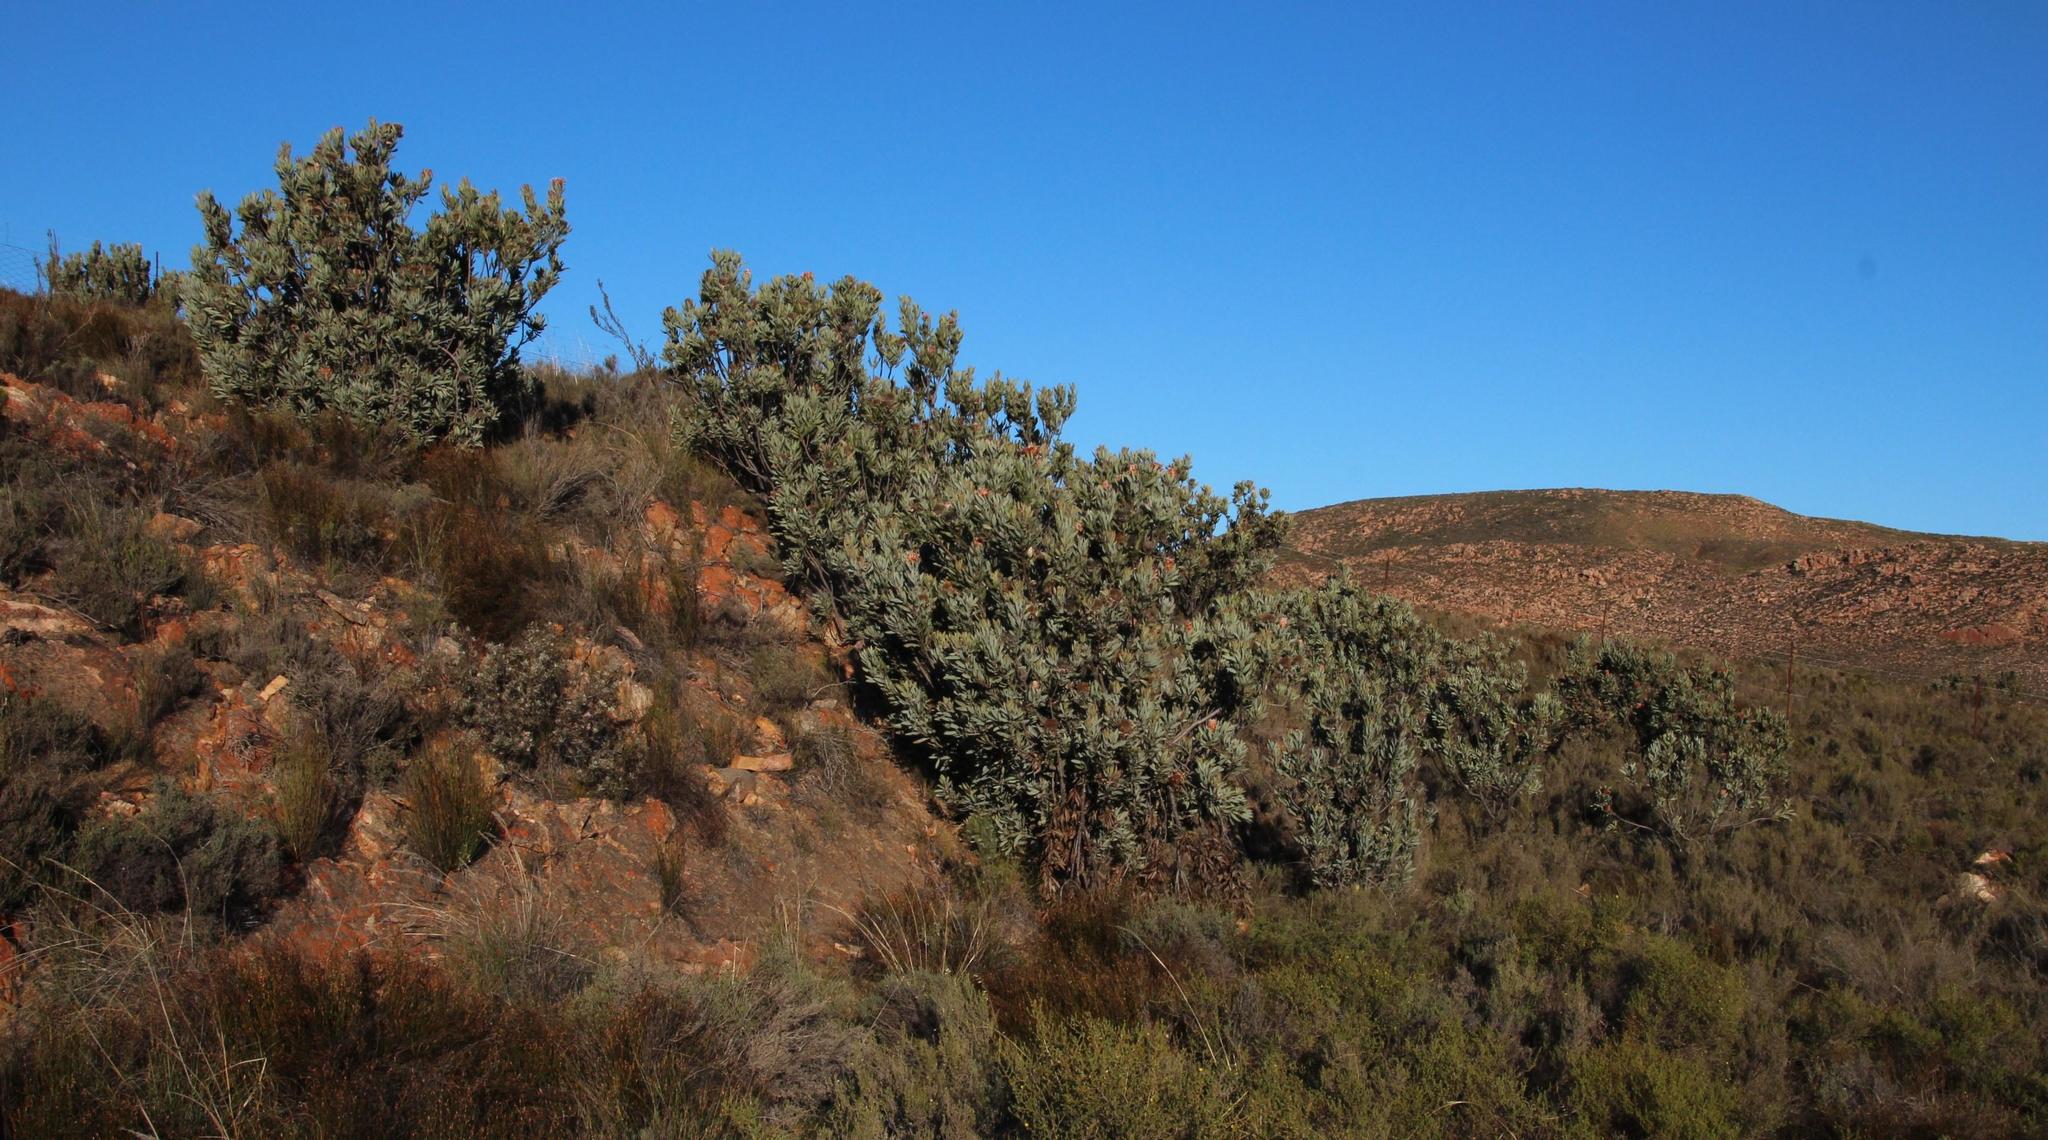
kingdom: Plantae
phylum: Tracheophyta
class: Magnoliopsida
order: Proteales
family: Proteaceae
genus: Protea
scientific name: Protea laurifolia
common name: Grey-leaf sugarbsh
